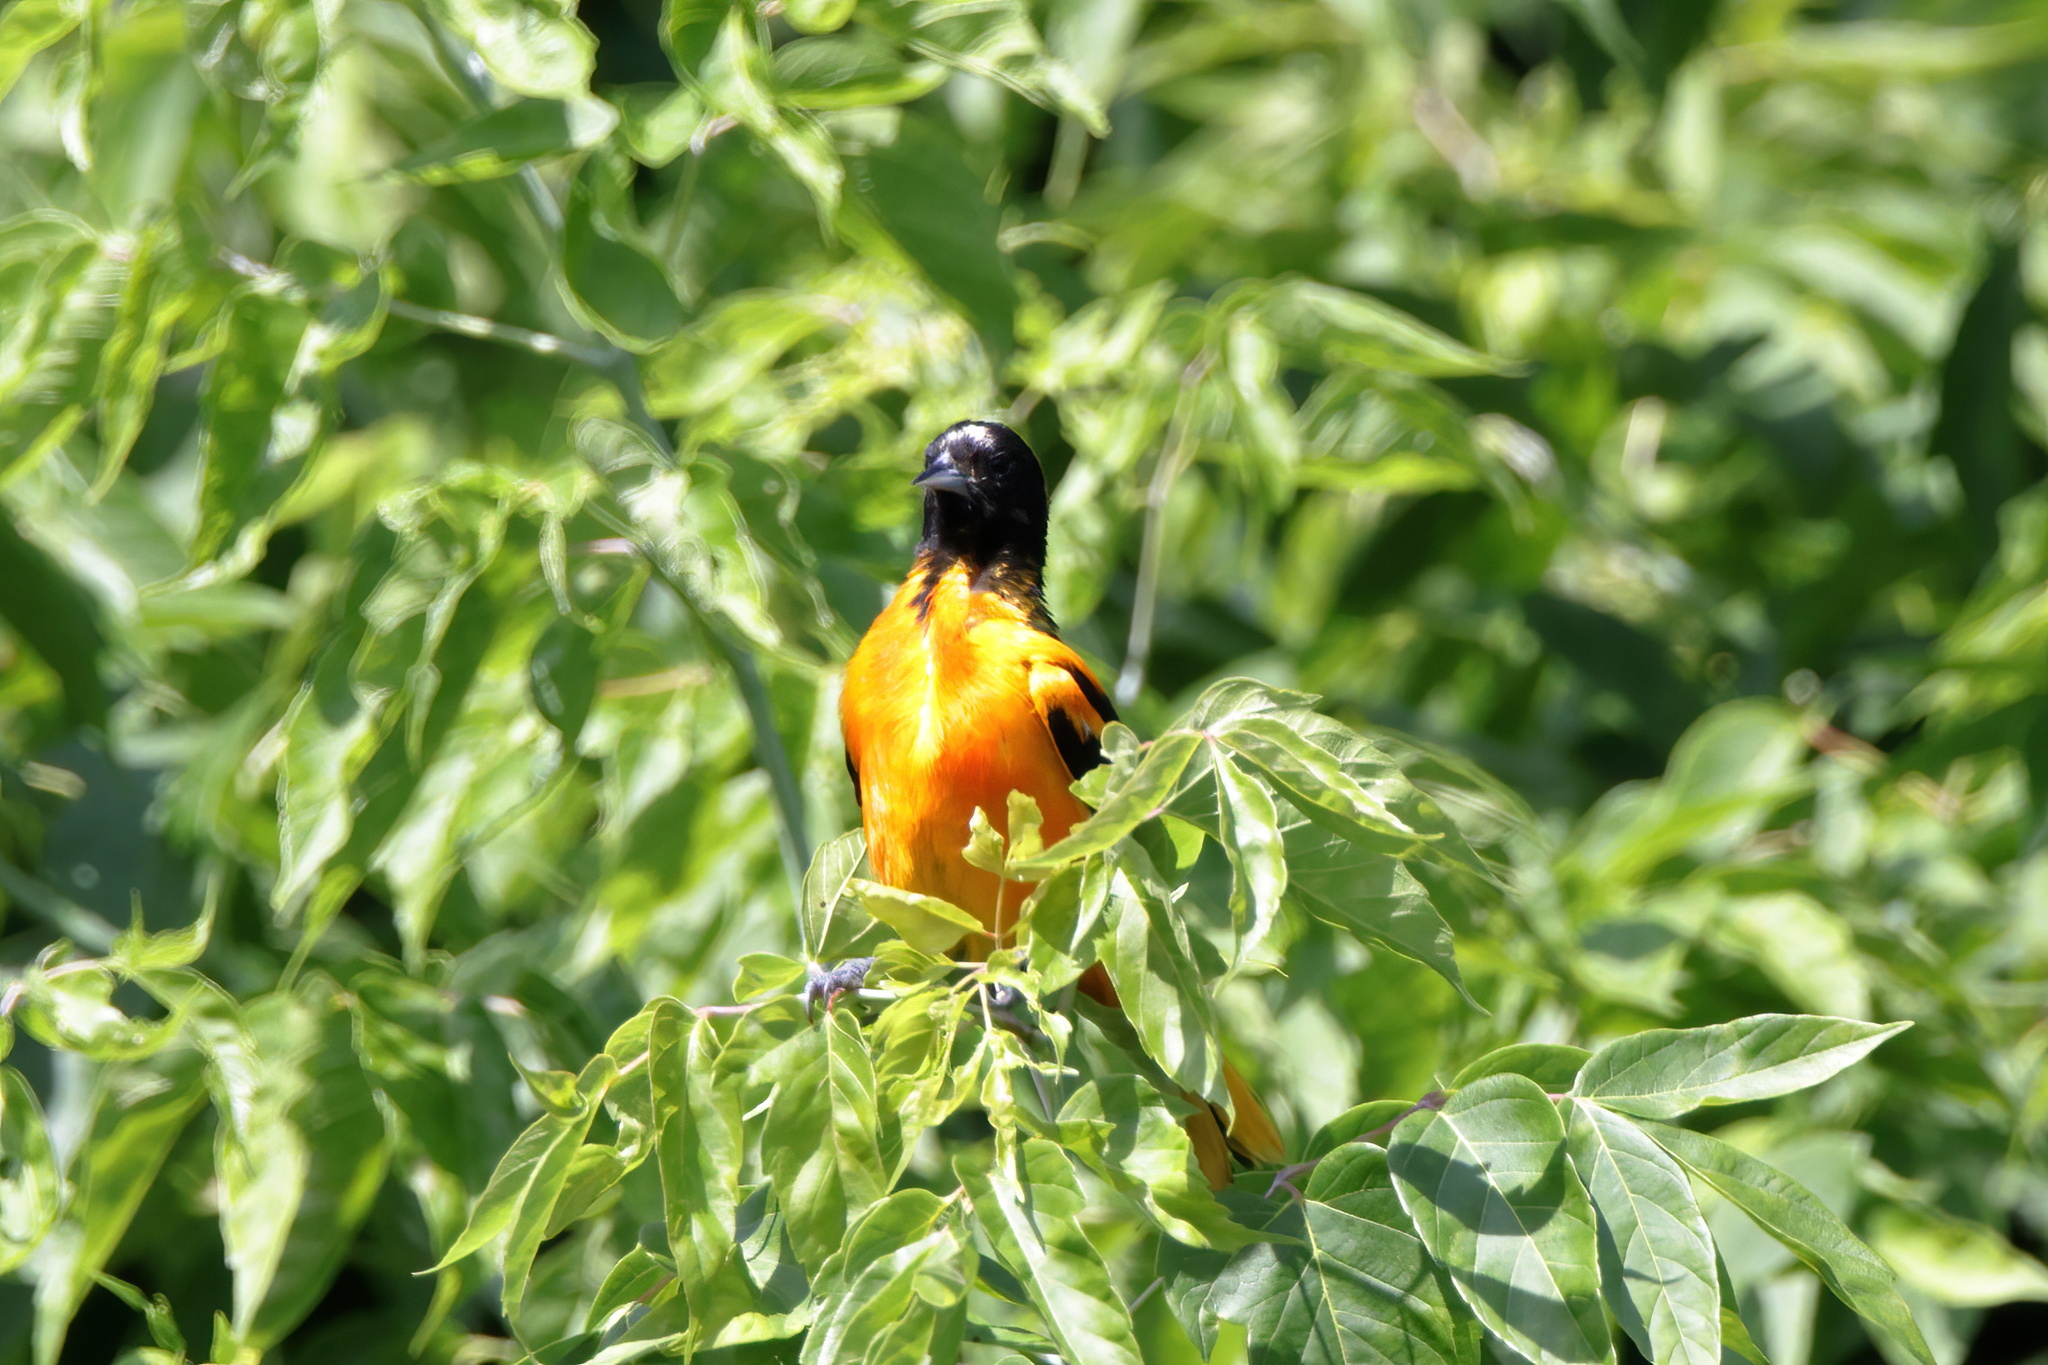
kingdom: Animalia
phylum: Chordata
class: Aves
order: Passeriformes
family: Icteridae
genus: Icterus
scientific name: Icterus galbula
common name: Baltimore oriole
